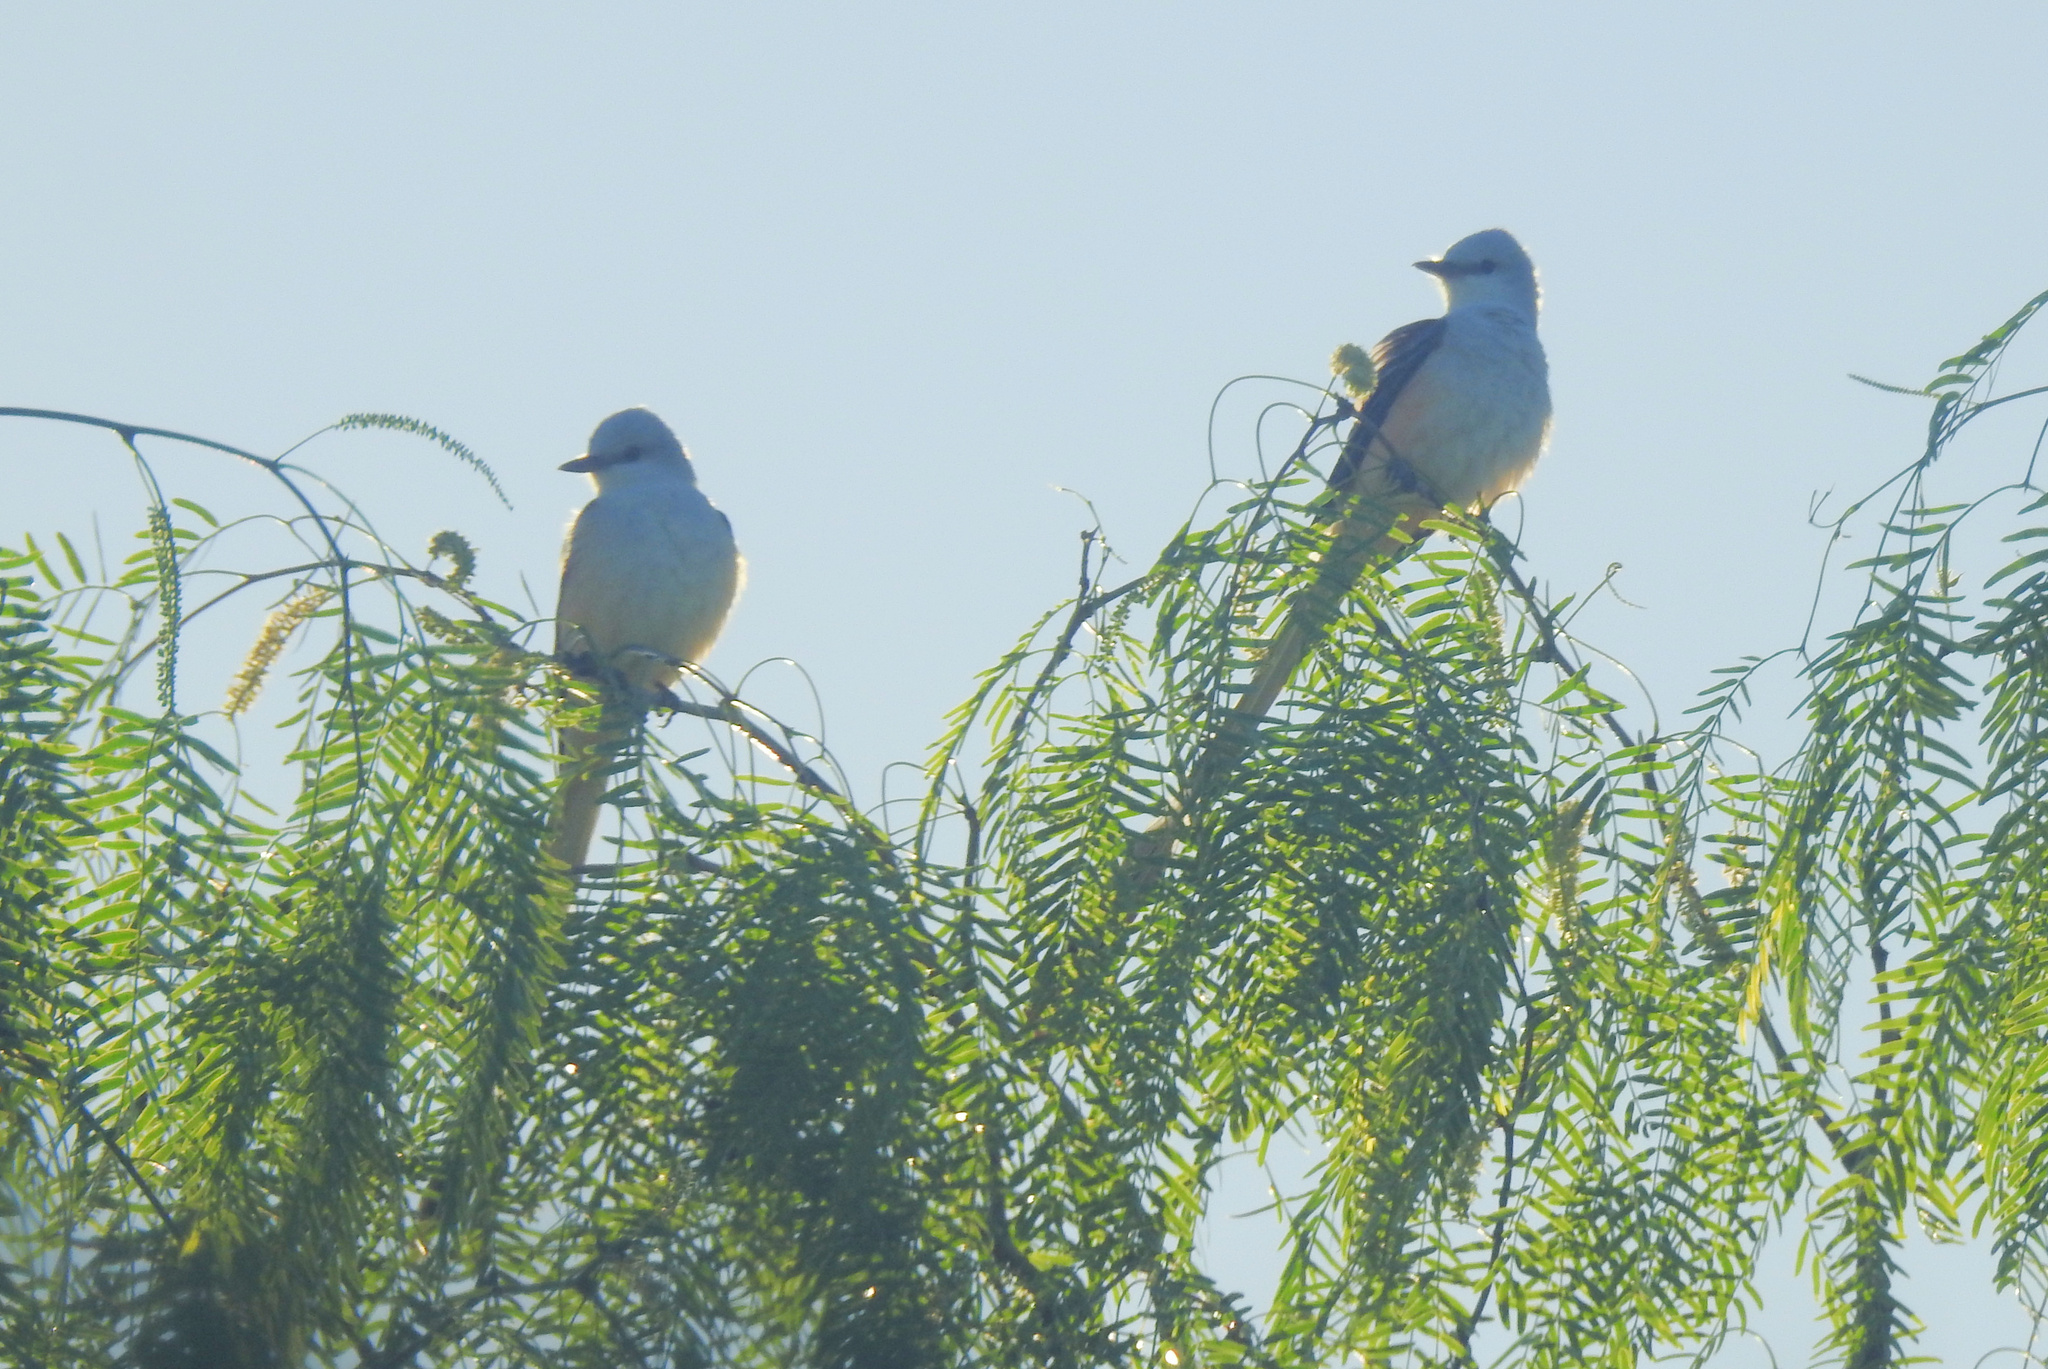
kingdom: Animalia
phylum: Chordata
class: Aves
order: Passeriformes
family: Tyrannidae
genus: Tyrannus
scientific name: Tyrannus forficatus
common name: Scissor-tailed flycatcher
